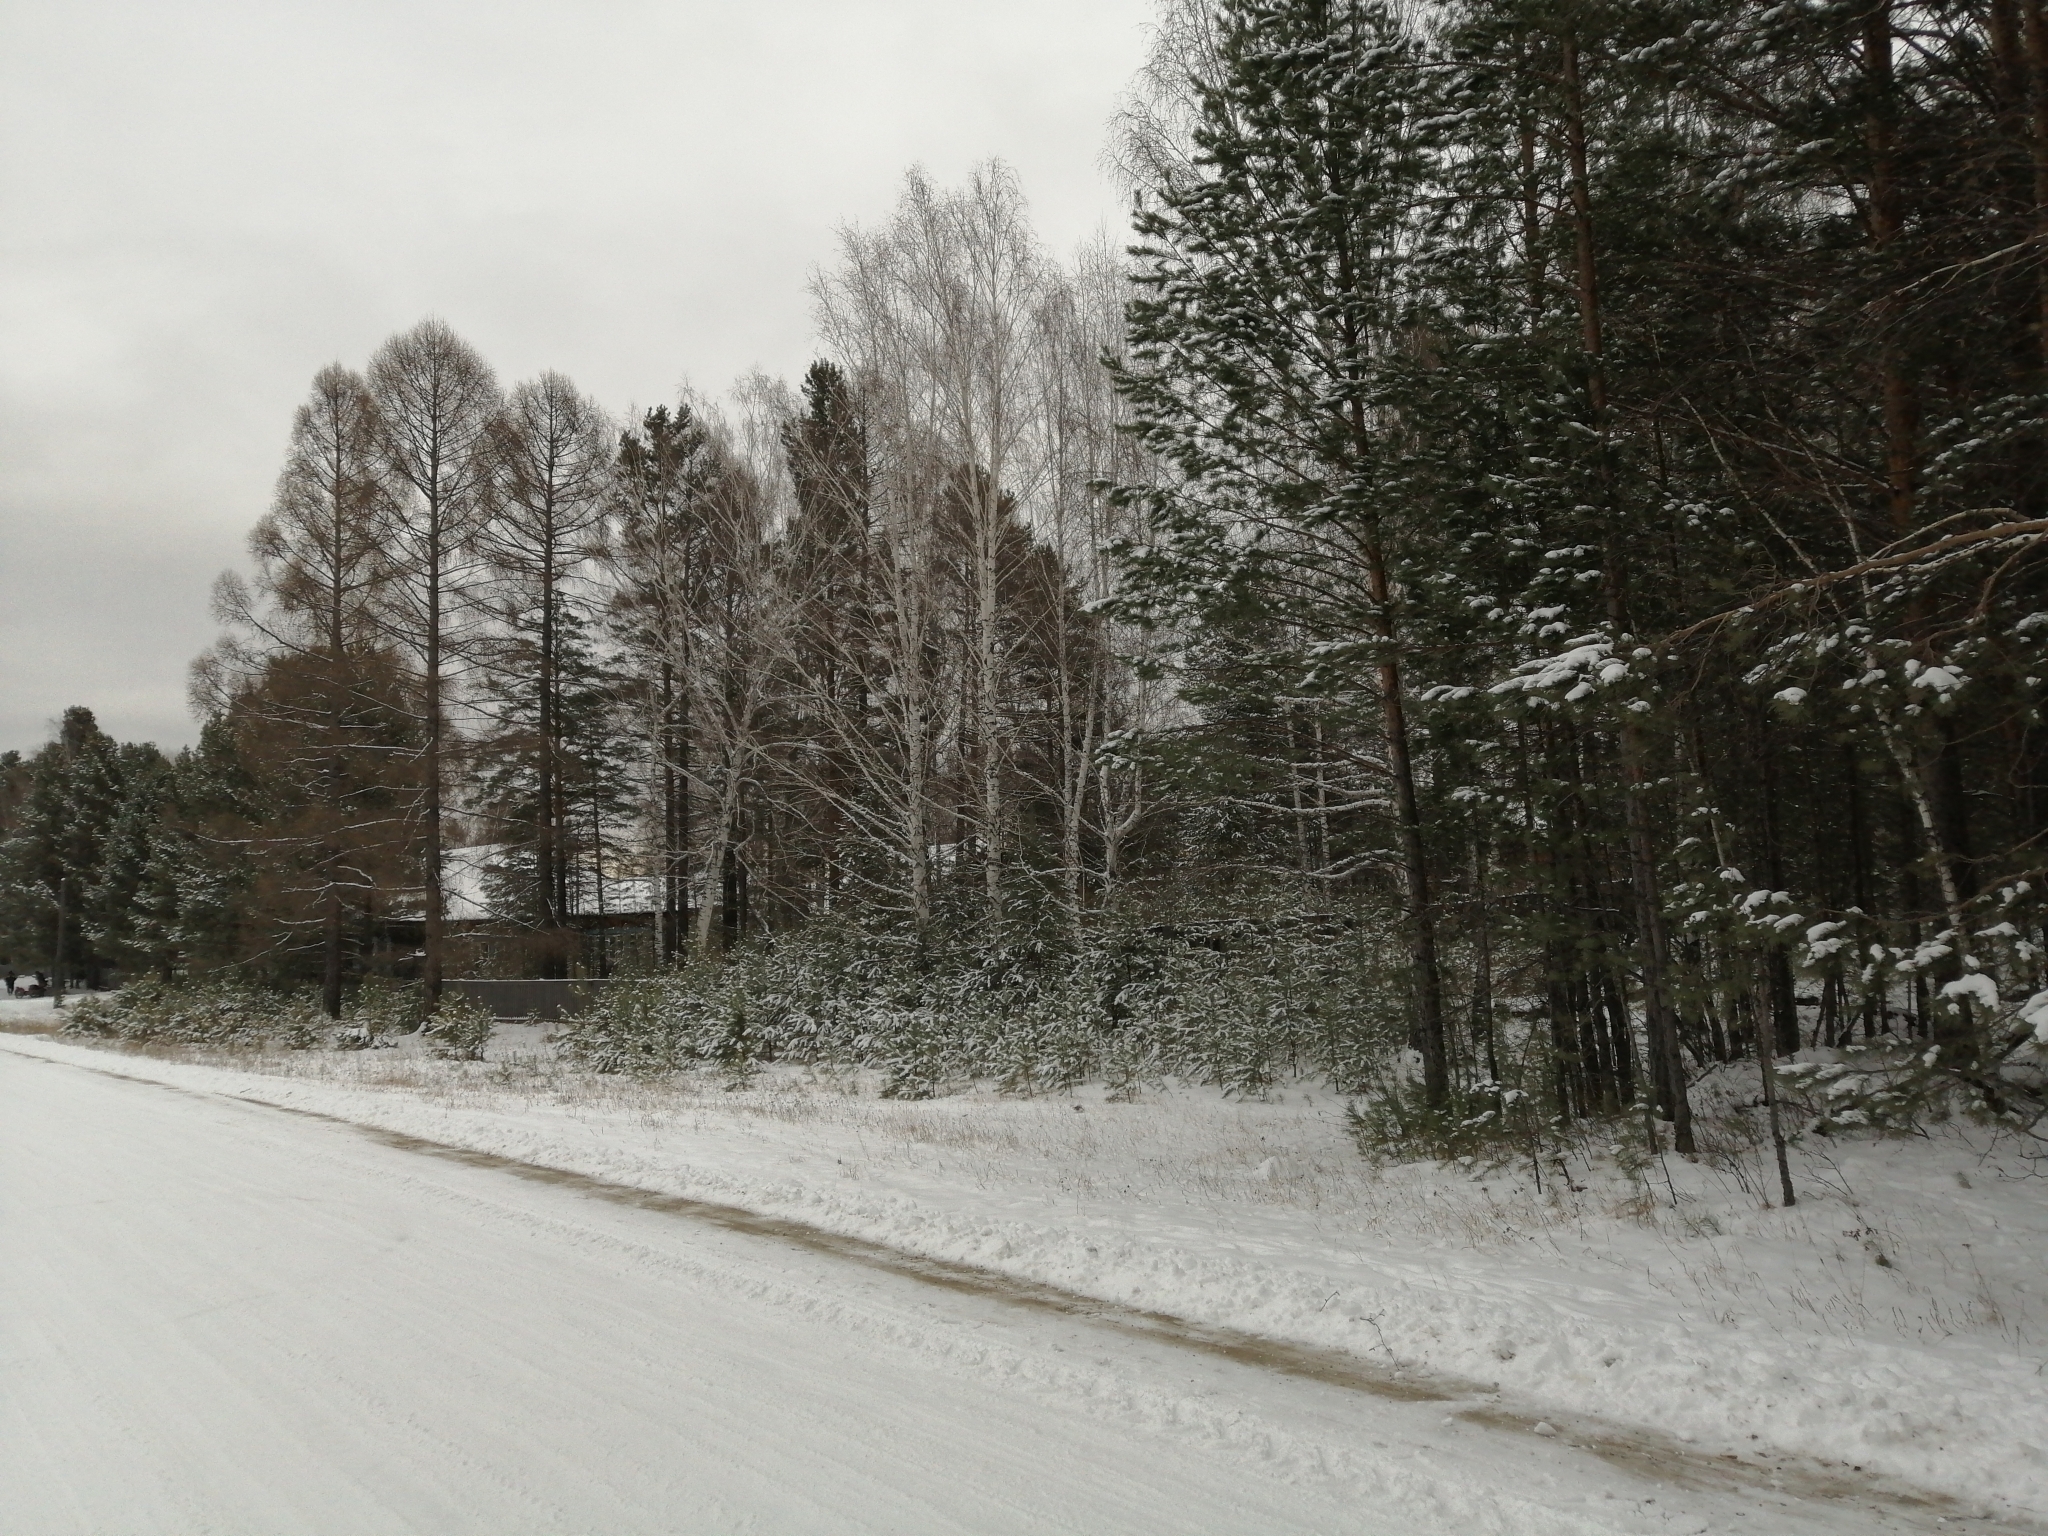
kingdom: Plantae
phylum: Tracheophyta
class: Pinopsida
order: Pinales
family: Pinaceae
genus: Larix
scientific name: Larix sibirica
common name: Siberian larch
